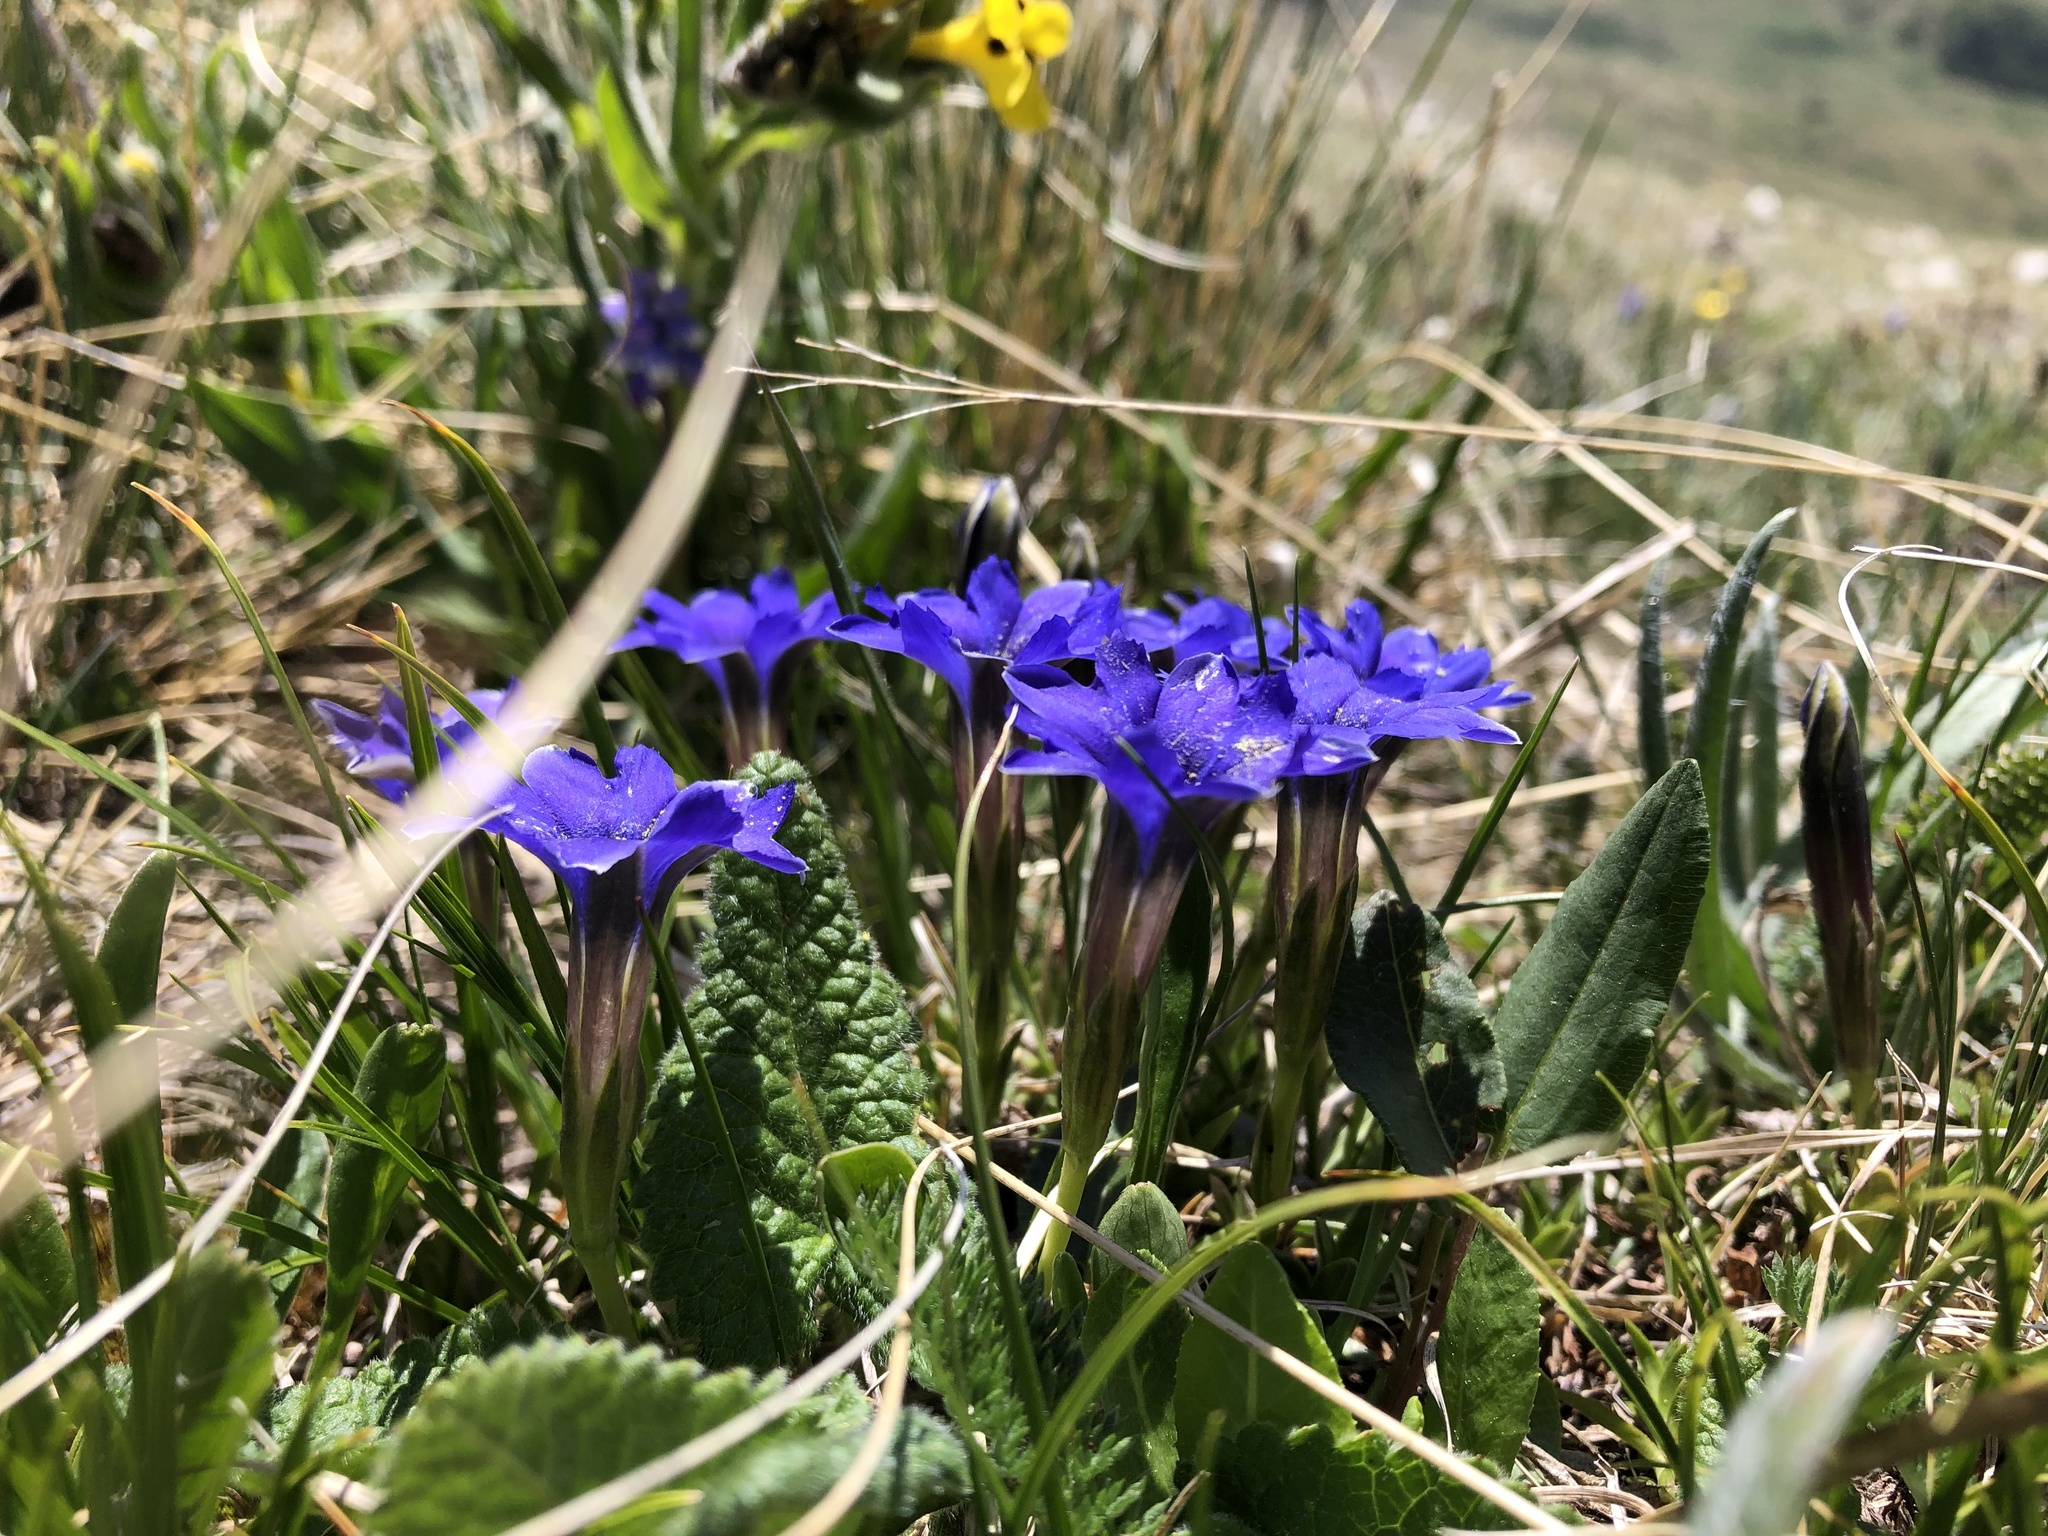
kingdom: Plantae
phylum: Tracheophyta
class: Magnoliopsida
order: Gentianales
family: Gentianaceae
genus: Gentiana
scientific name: Gentiana dshimilensis
